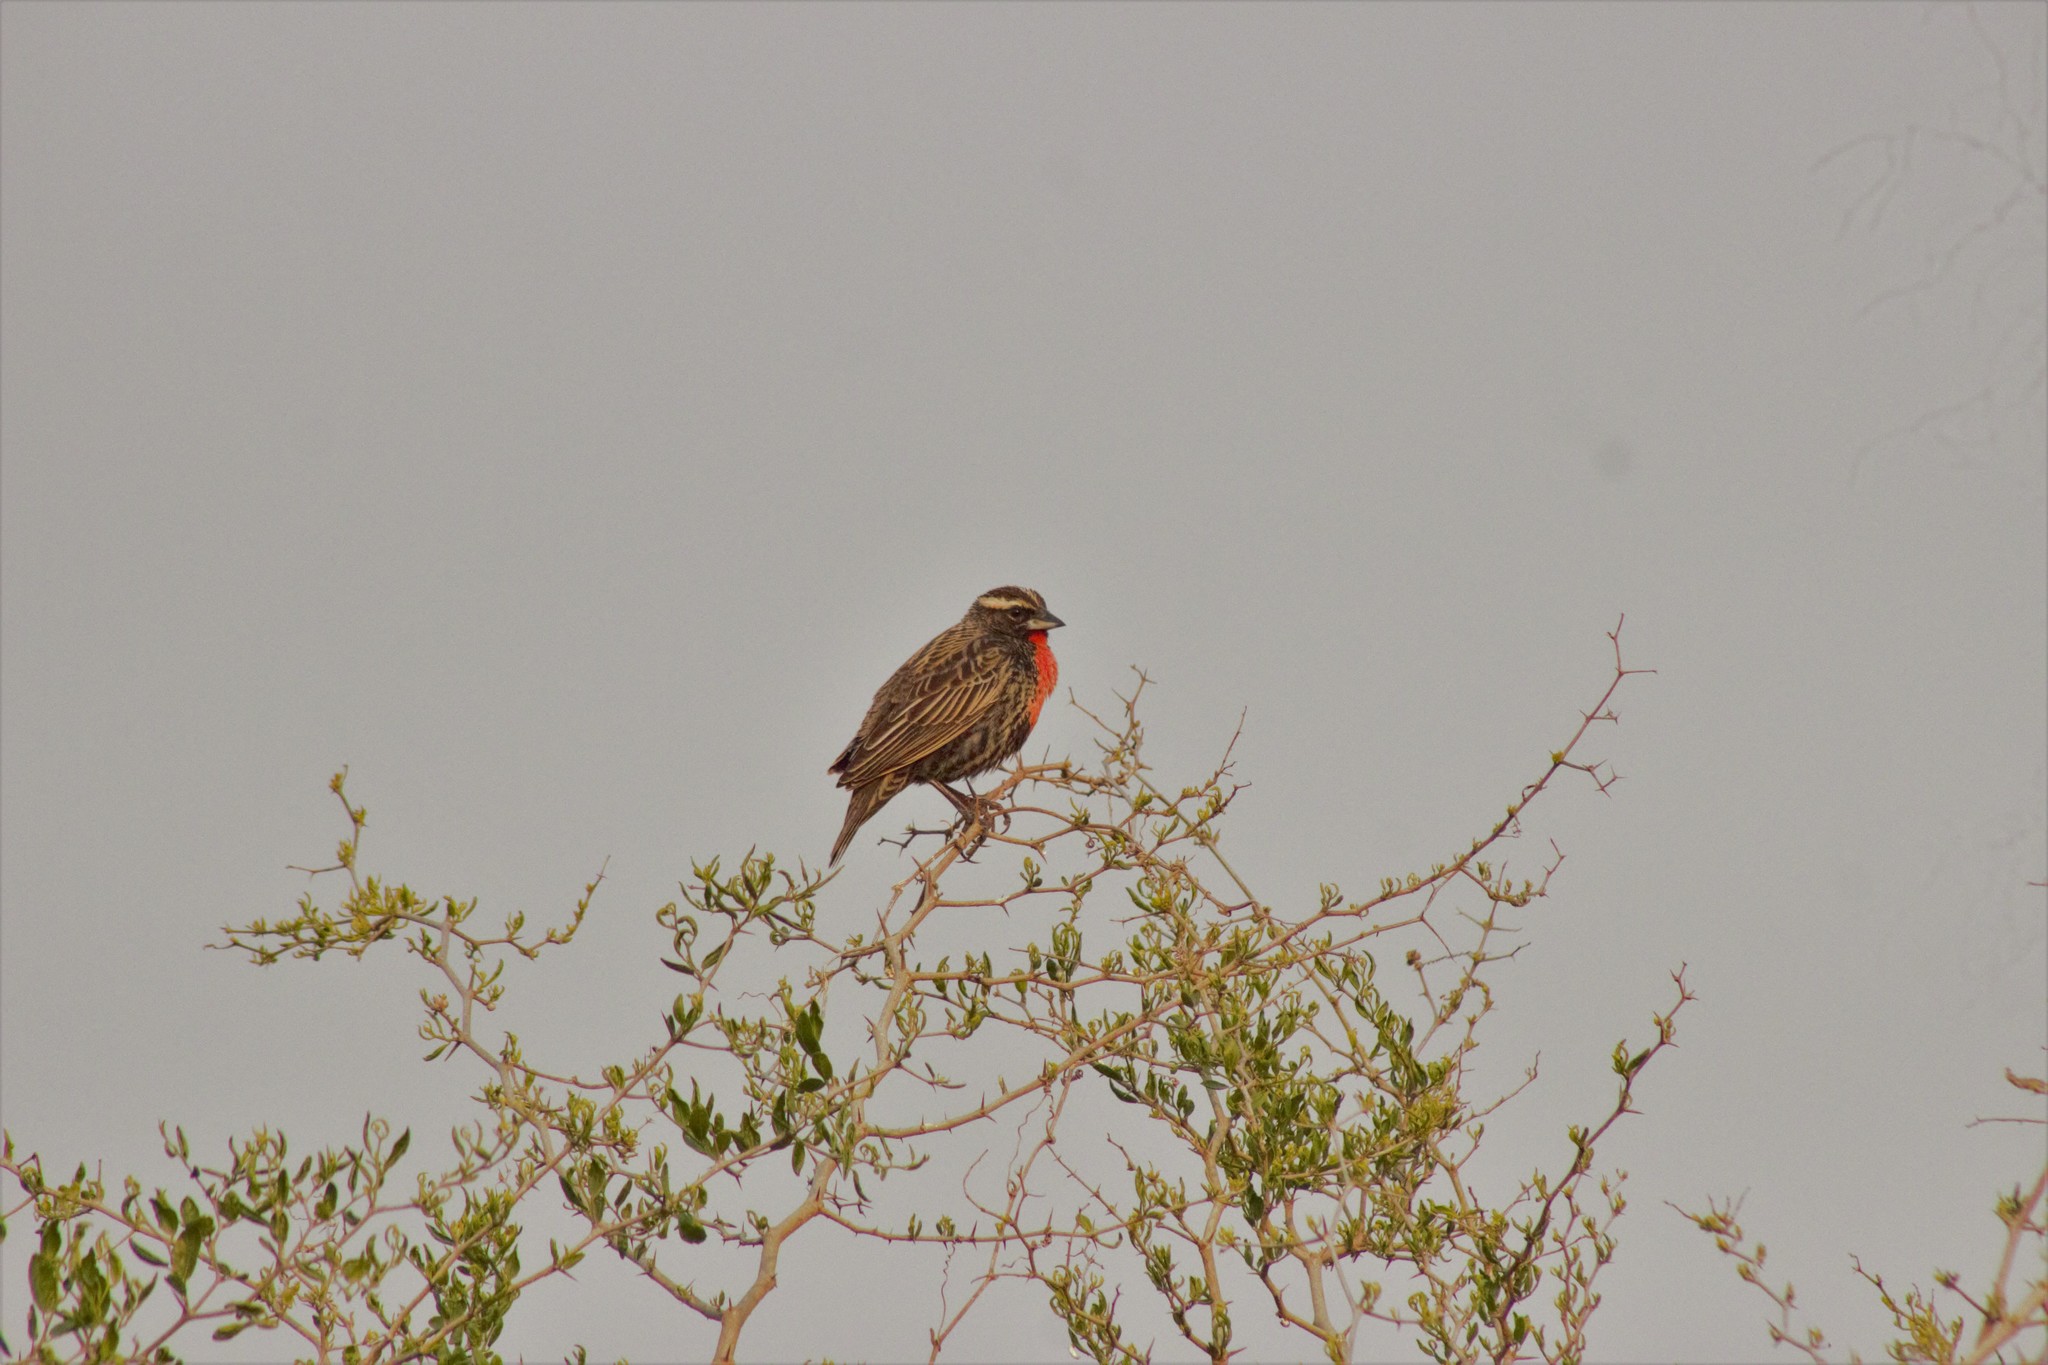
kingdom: Animalia
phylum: Chordata
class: Aves
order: Passeriformes
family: Icteridae
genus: Sturnella
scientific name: Sturnella superciliaris
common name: White-browed blackbird
